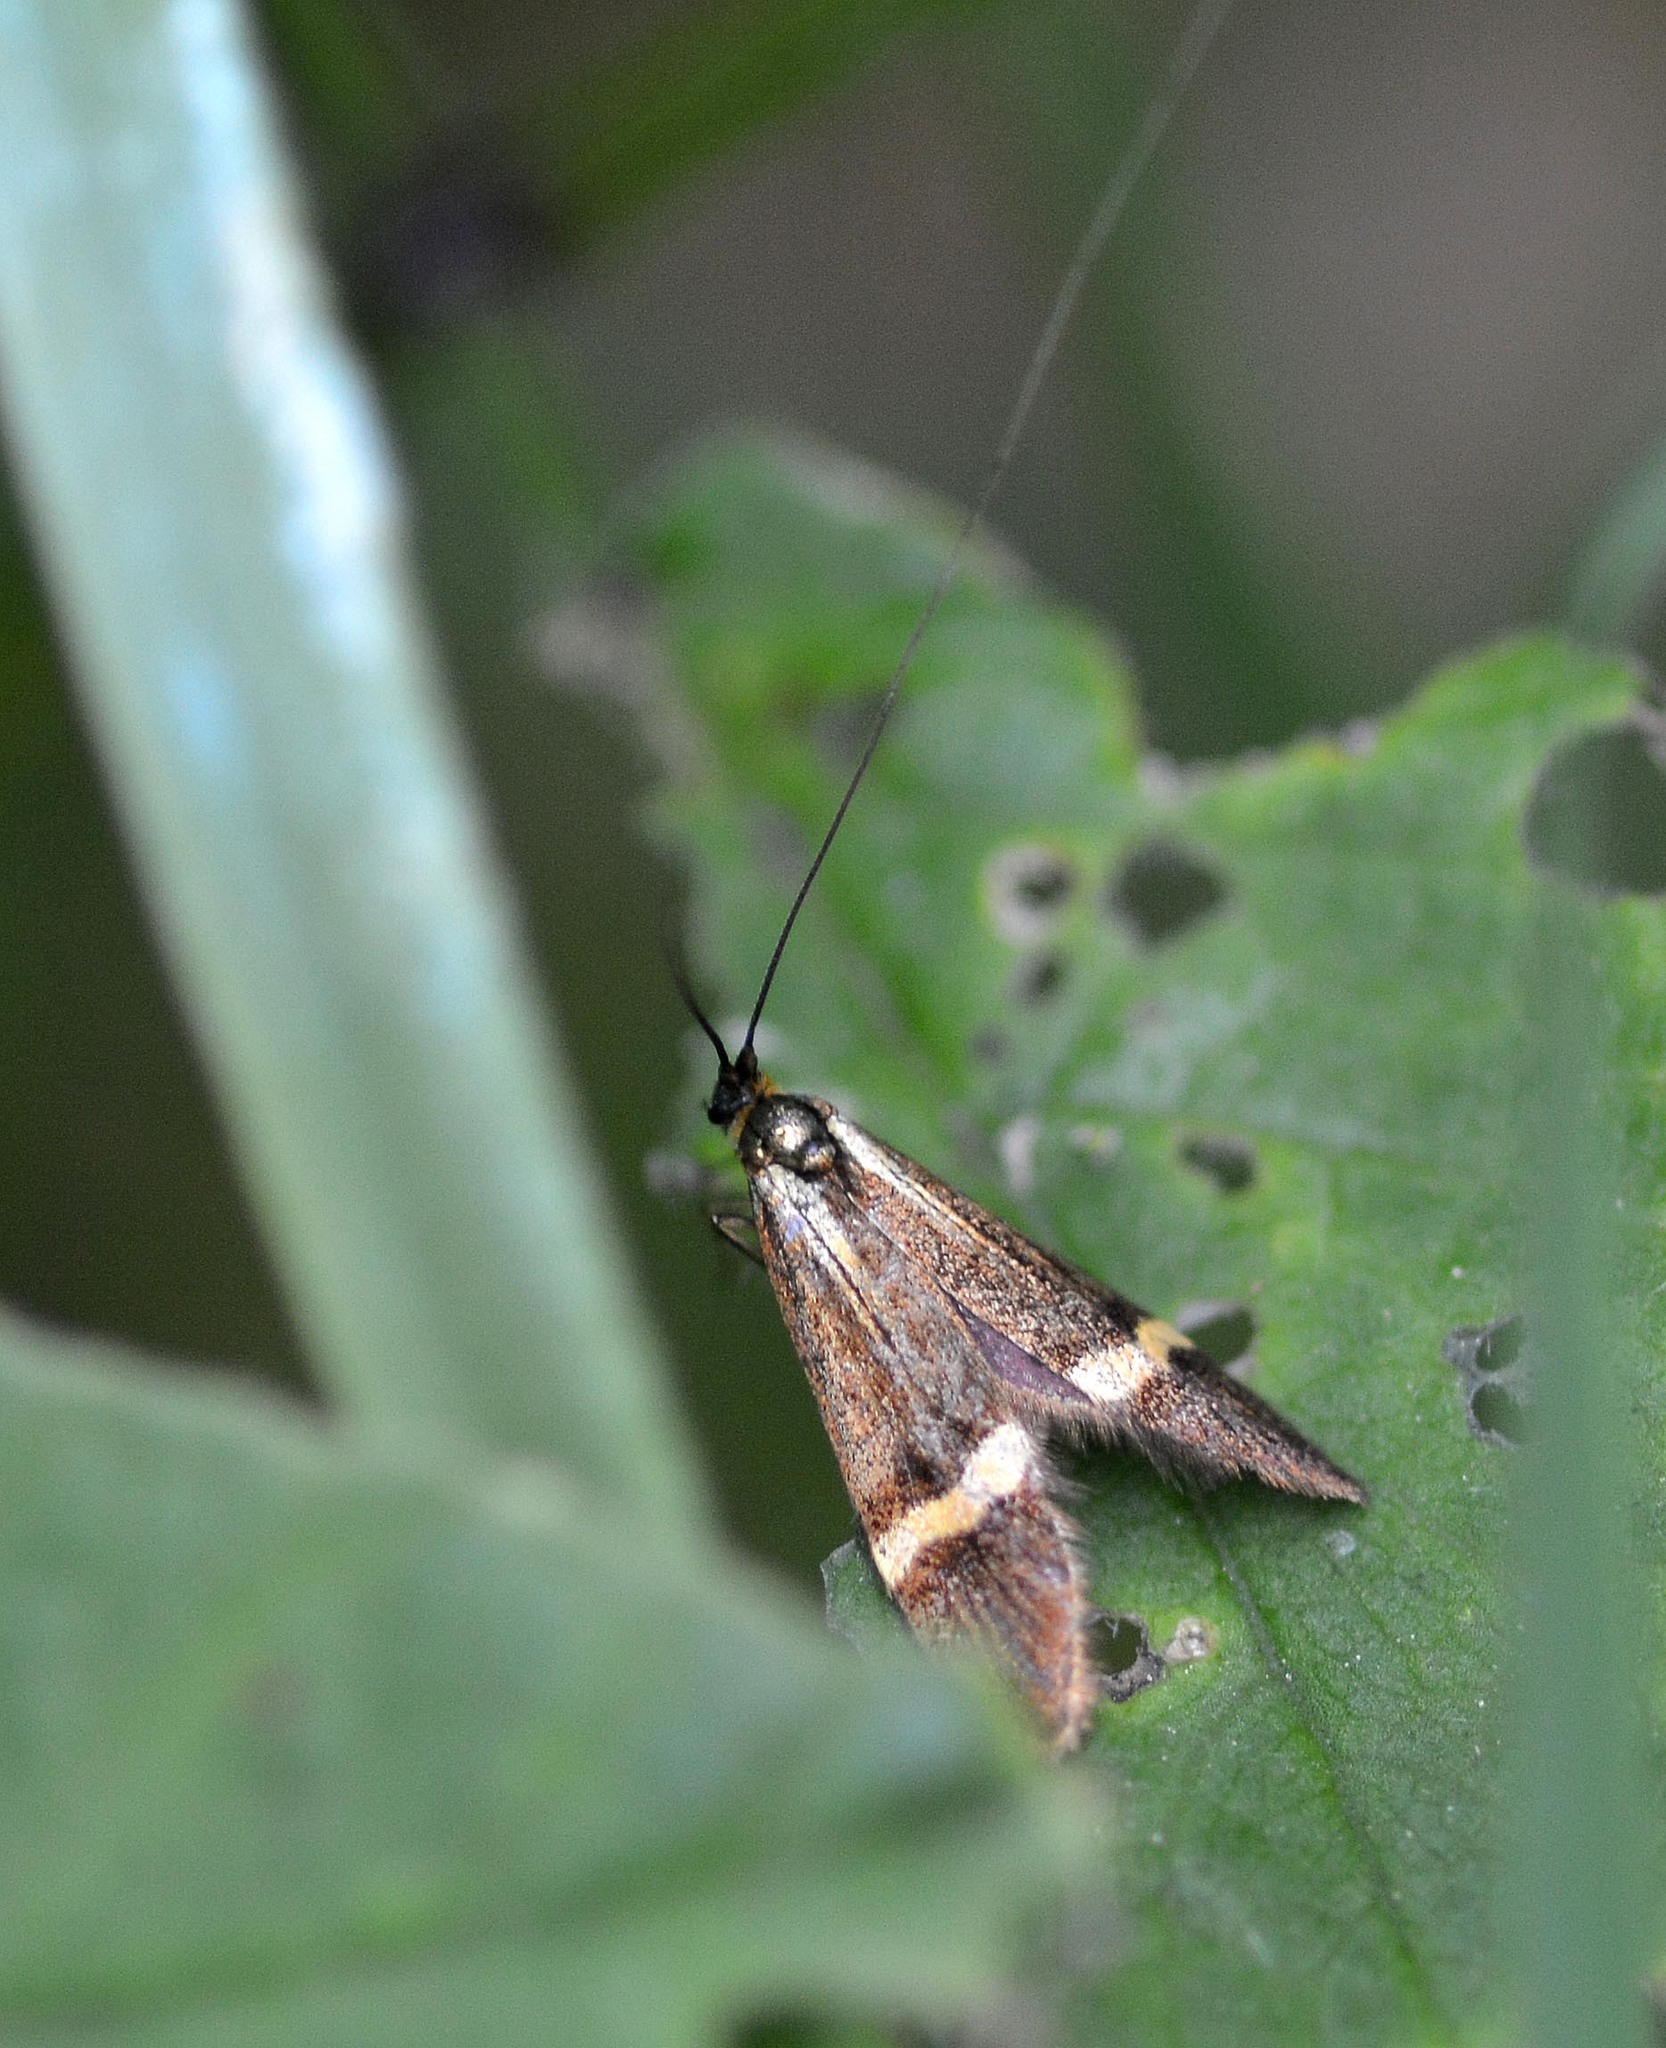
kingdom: Animalia
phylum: Arthropoda
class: Insecta
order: Lepidoptera
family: Adelidae
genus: Nemophora
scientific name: Nemophora degeerella
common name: Yellow-barred long-horn
